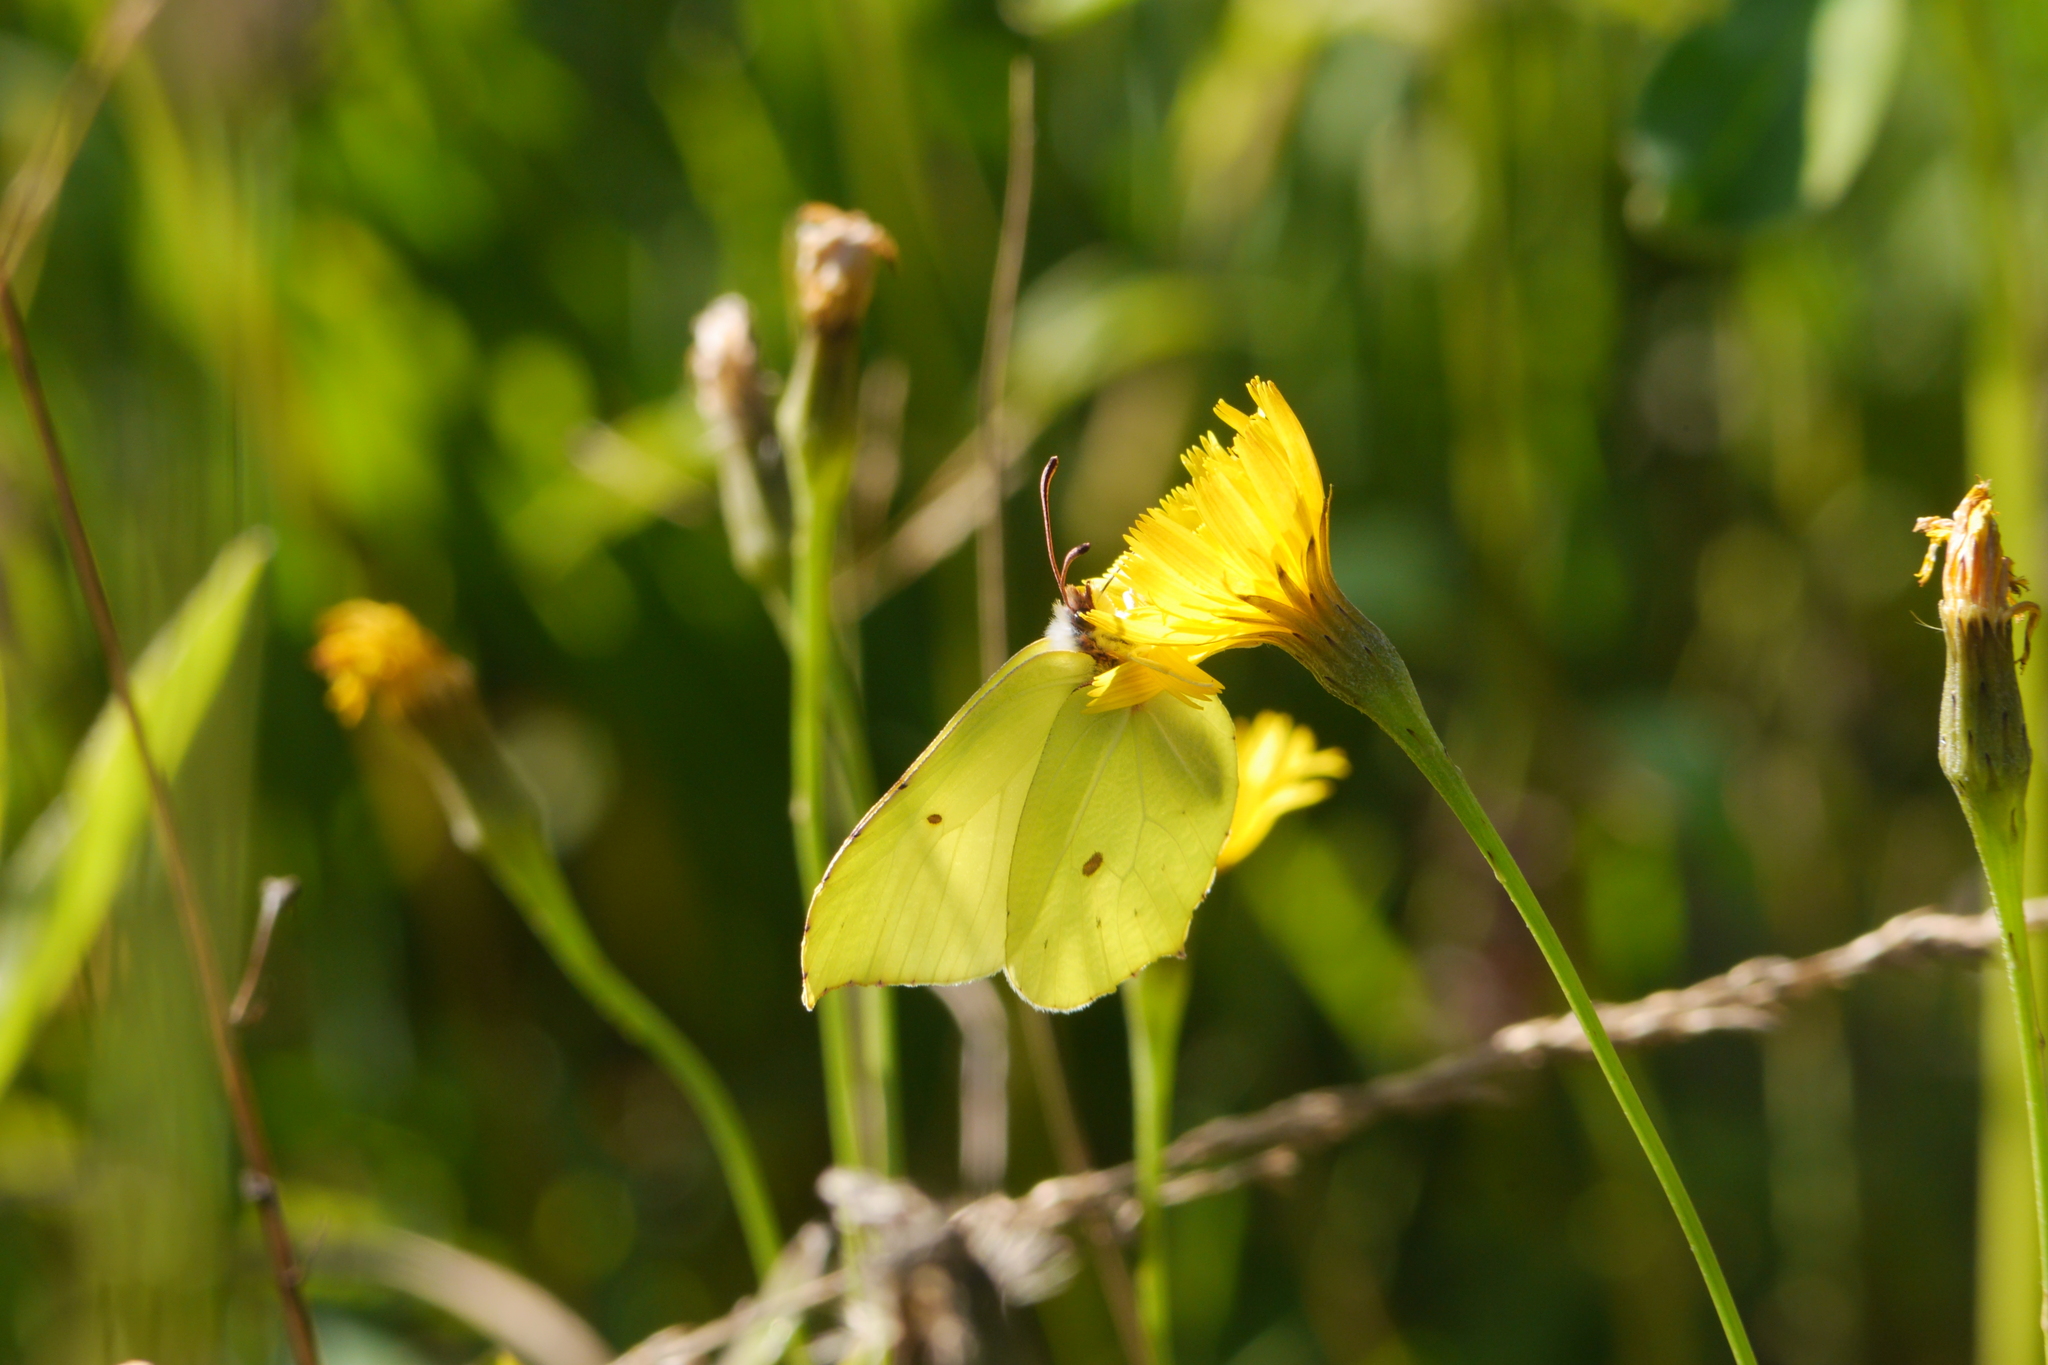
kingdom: Animalia
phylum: Arthropoda
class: Insecta
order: Lepidoptera
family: Pieridae
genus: Gonepteryx
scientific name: Gonepteryx rhamni
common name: Brimstone
